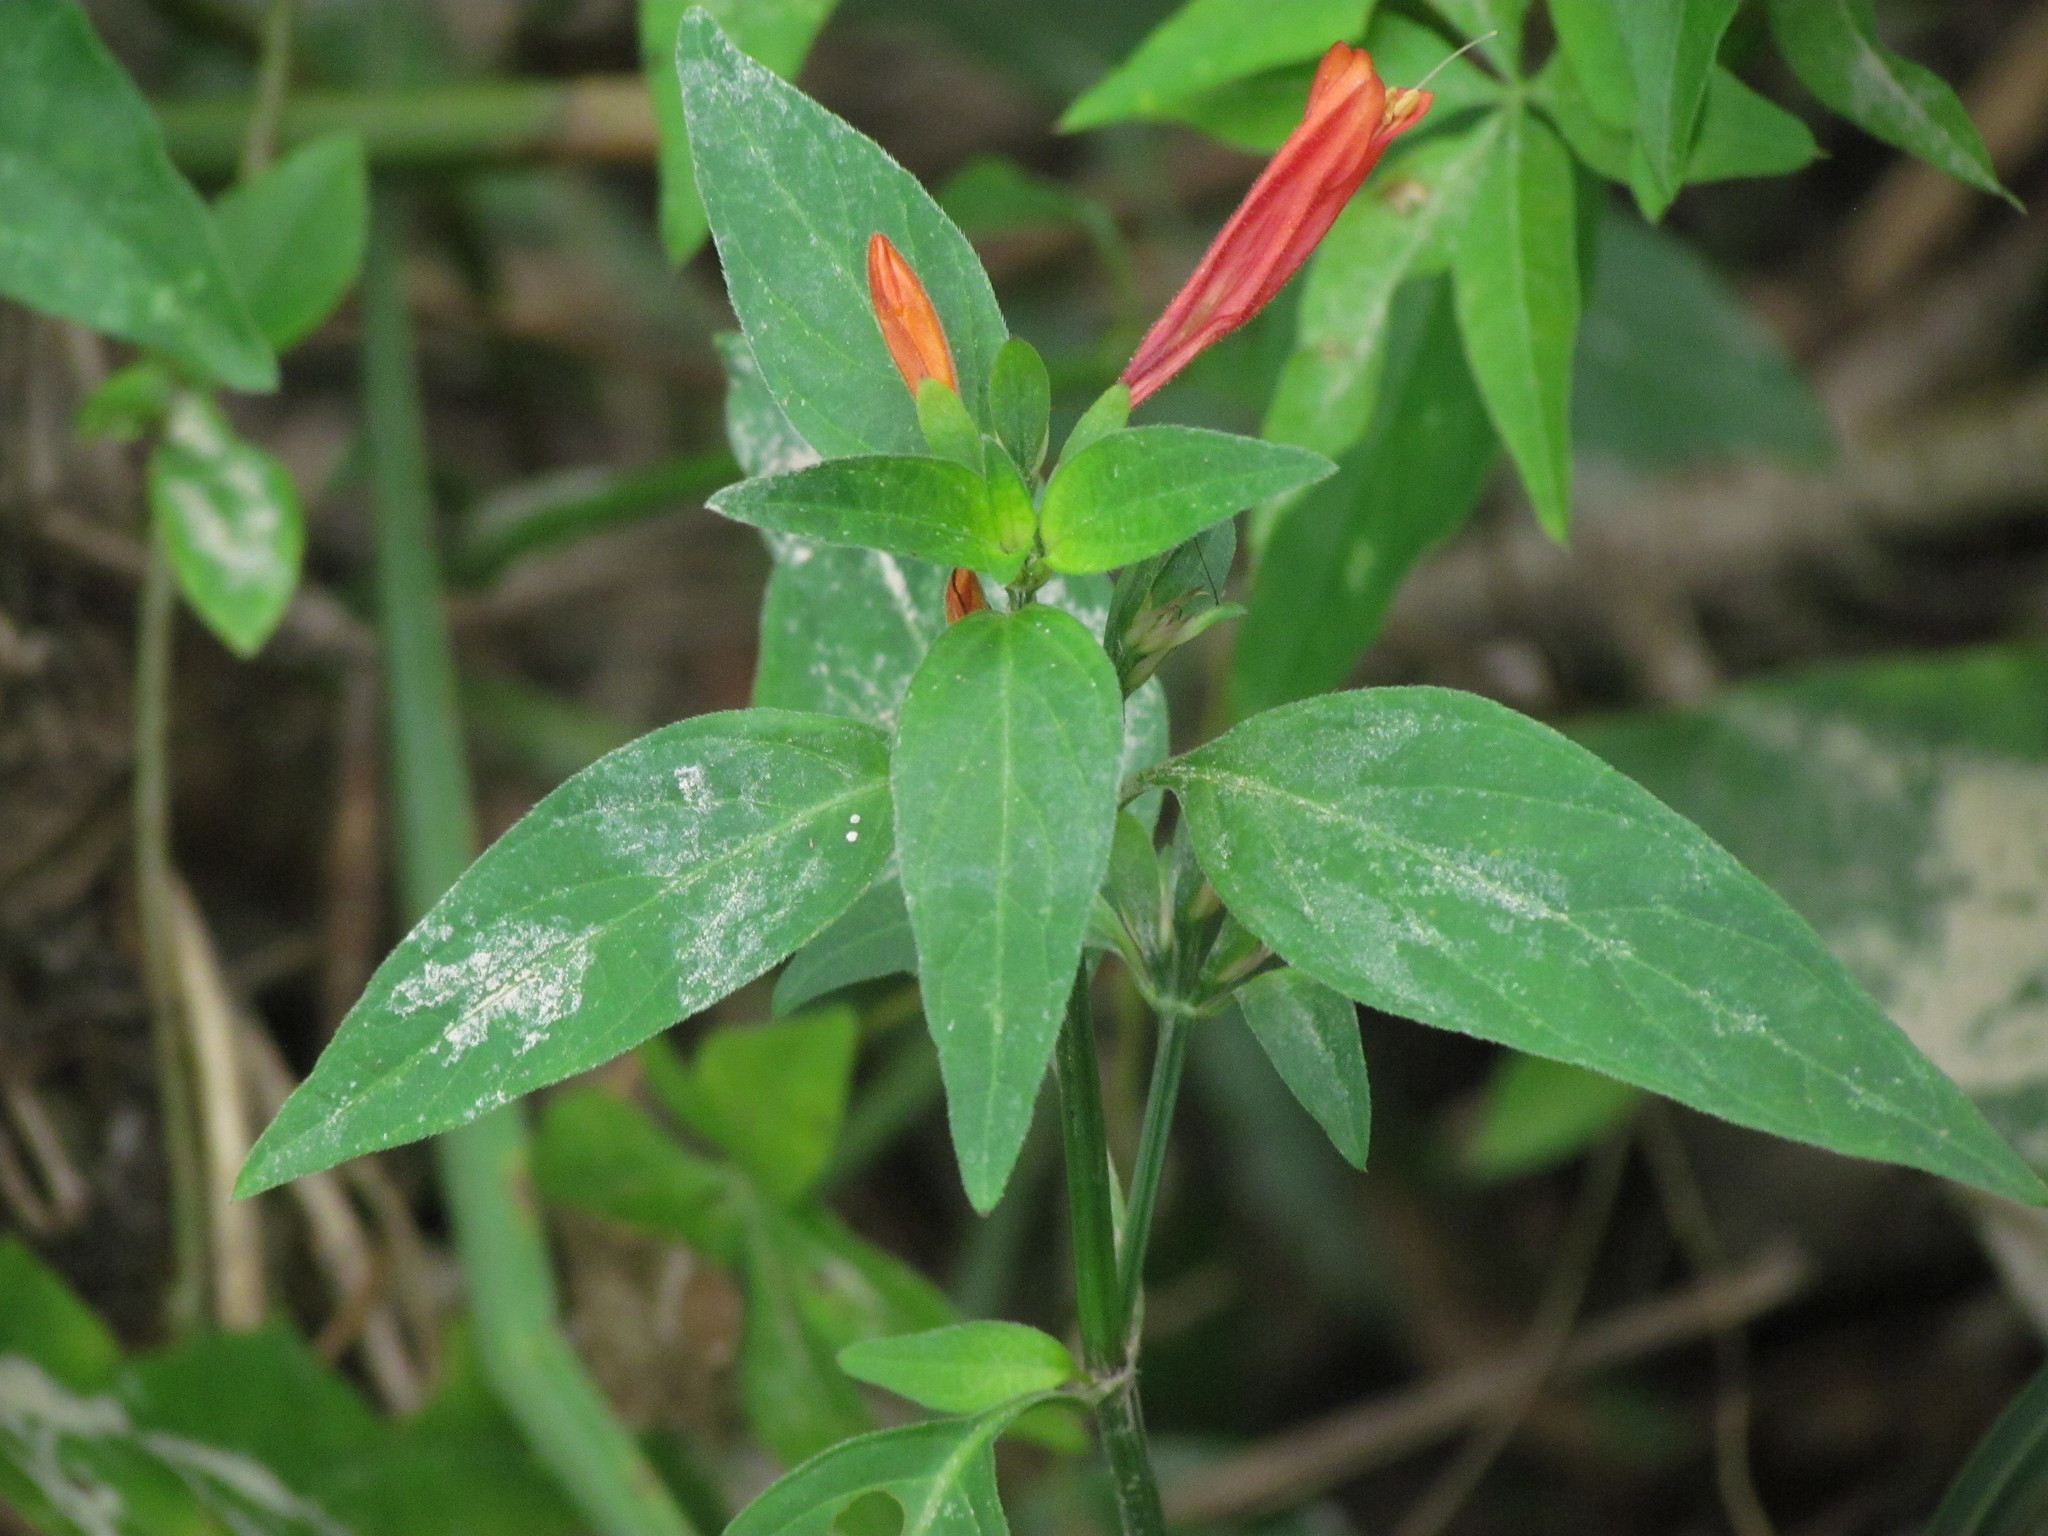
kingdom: Plantae
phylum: Tracheophyta
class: Magnoliopsida
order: Lamiales
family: Acanthaceae
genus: Dicliptera
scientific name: Dicliptera squarrosa
